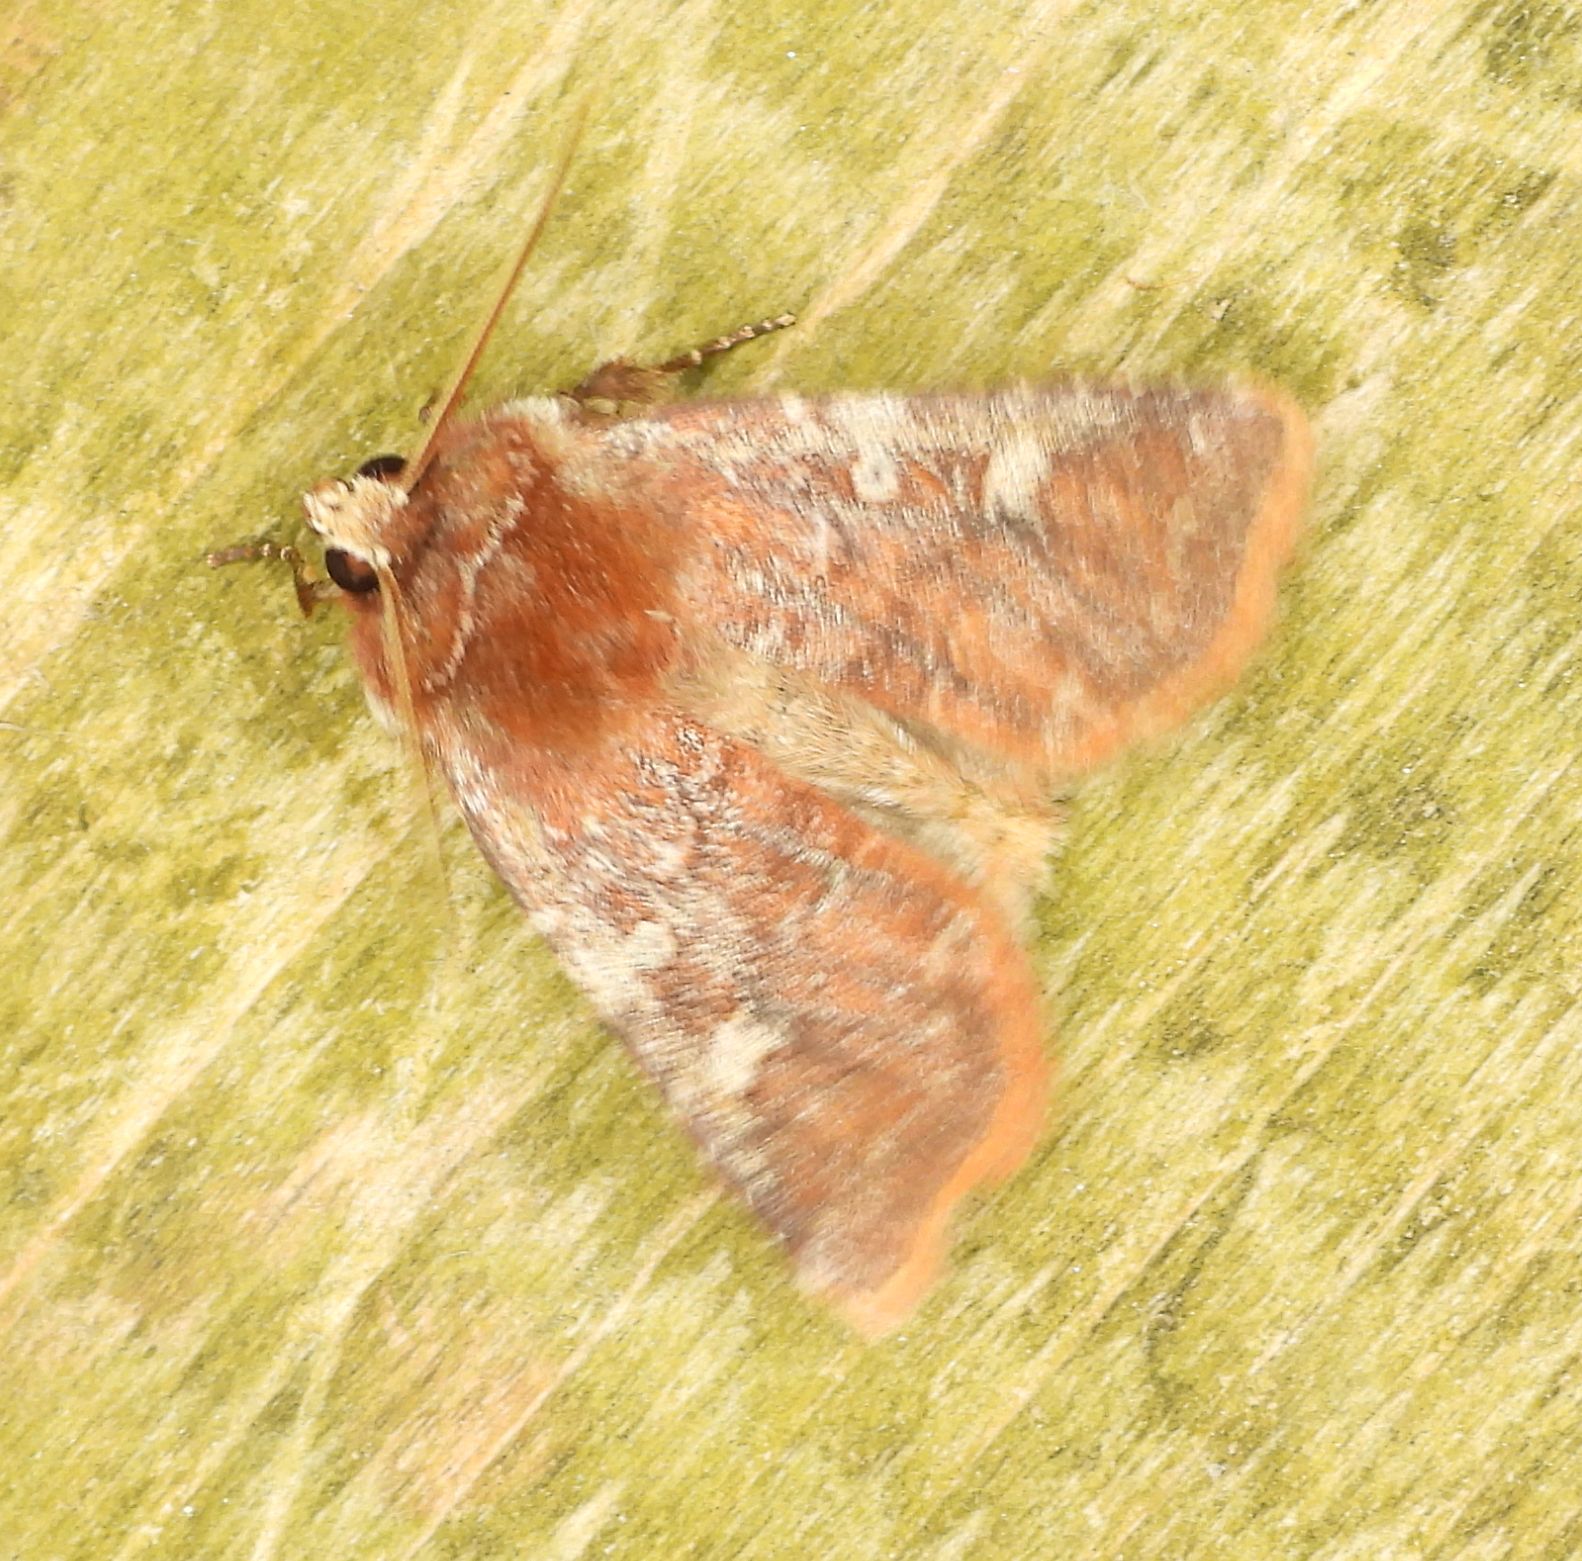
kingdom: Animalia
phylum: Arthropoda
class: Insecta
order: Lepidoptera
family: Noctuidae
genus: Cerastis
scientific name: Cerastis tenebrifera
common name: Reddish speckled dart
